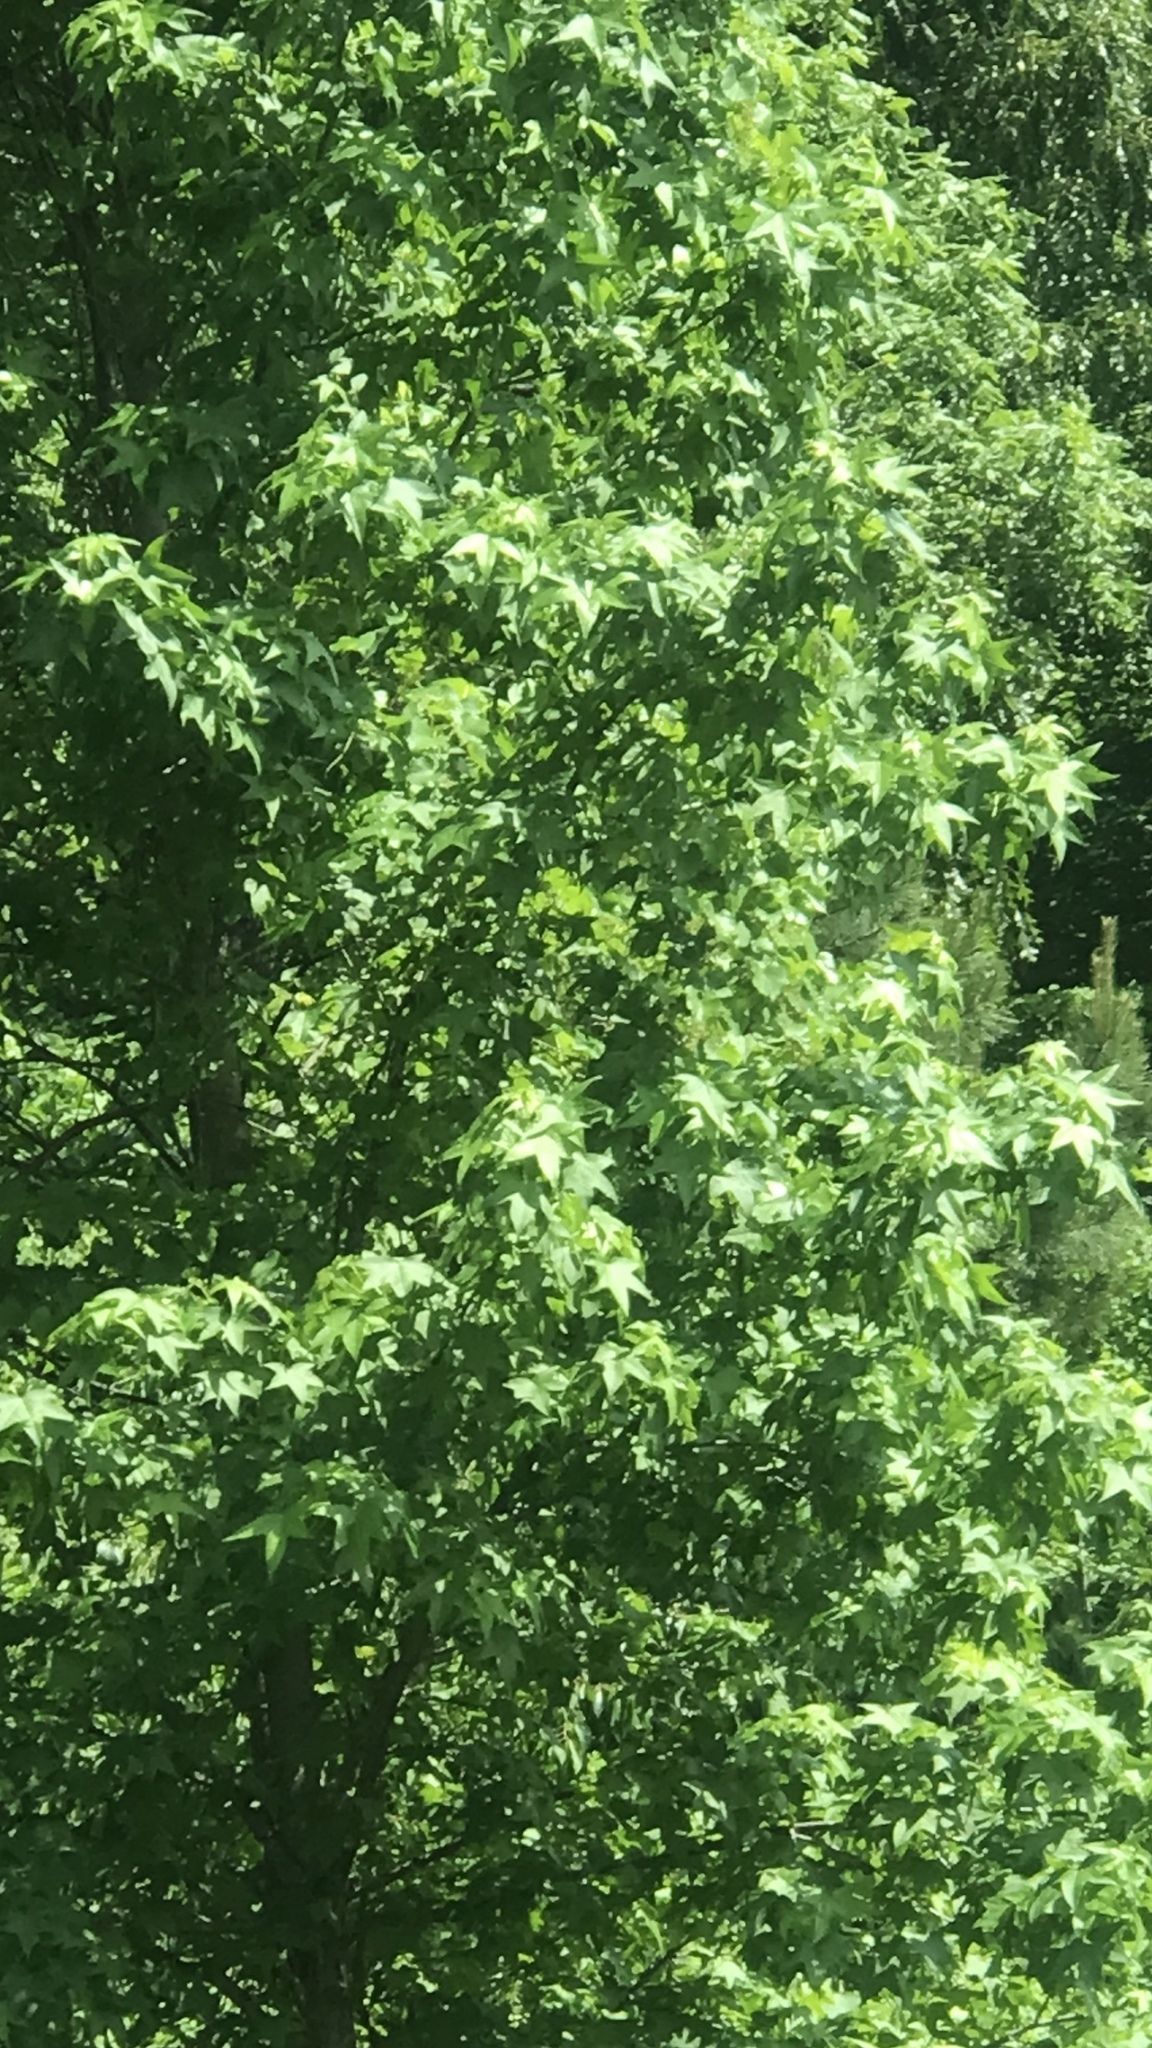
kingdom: Plantae
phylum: Tracheophyta
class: Magnoliopsida
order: Saxifragales
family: Altingiaceae
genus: Liquidambar
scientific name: Liquidambar styraciflua
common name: Sweet gum
